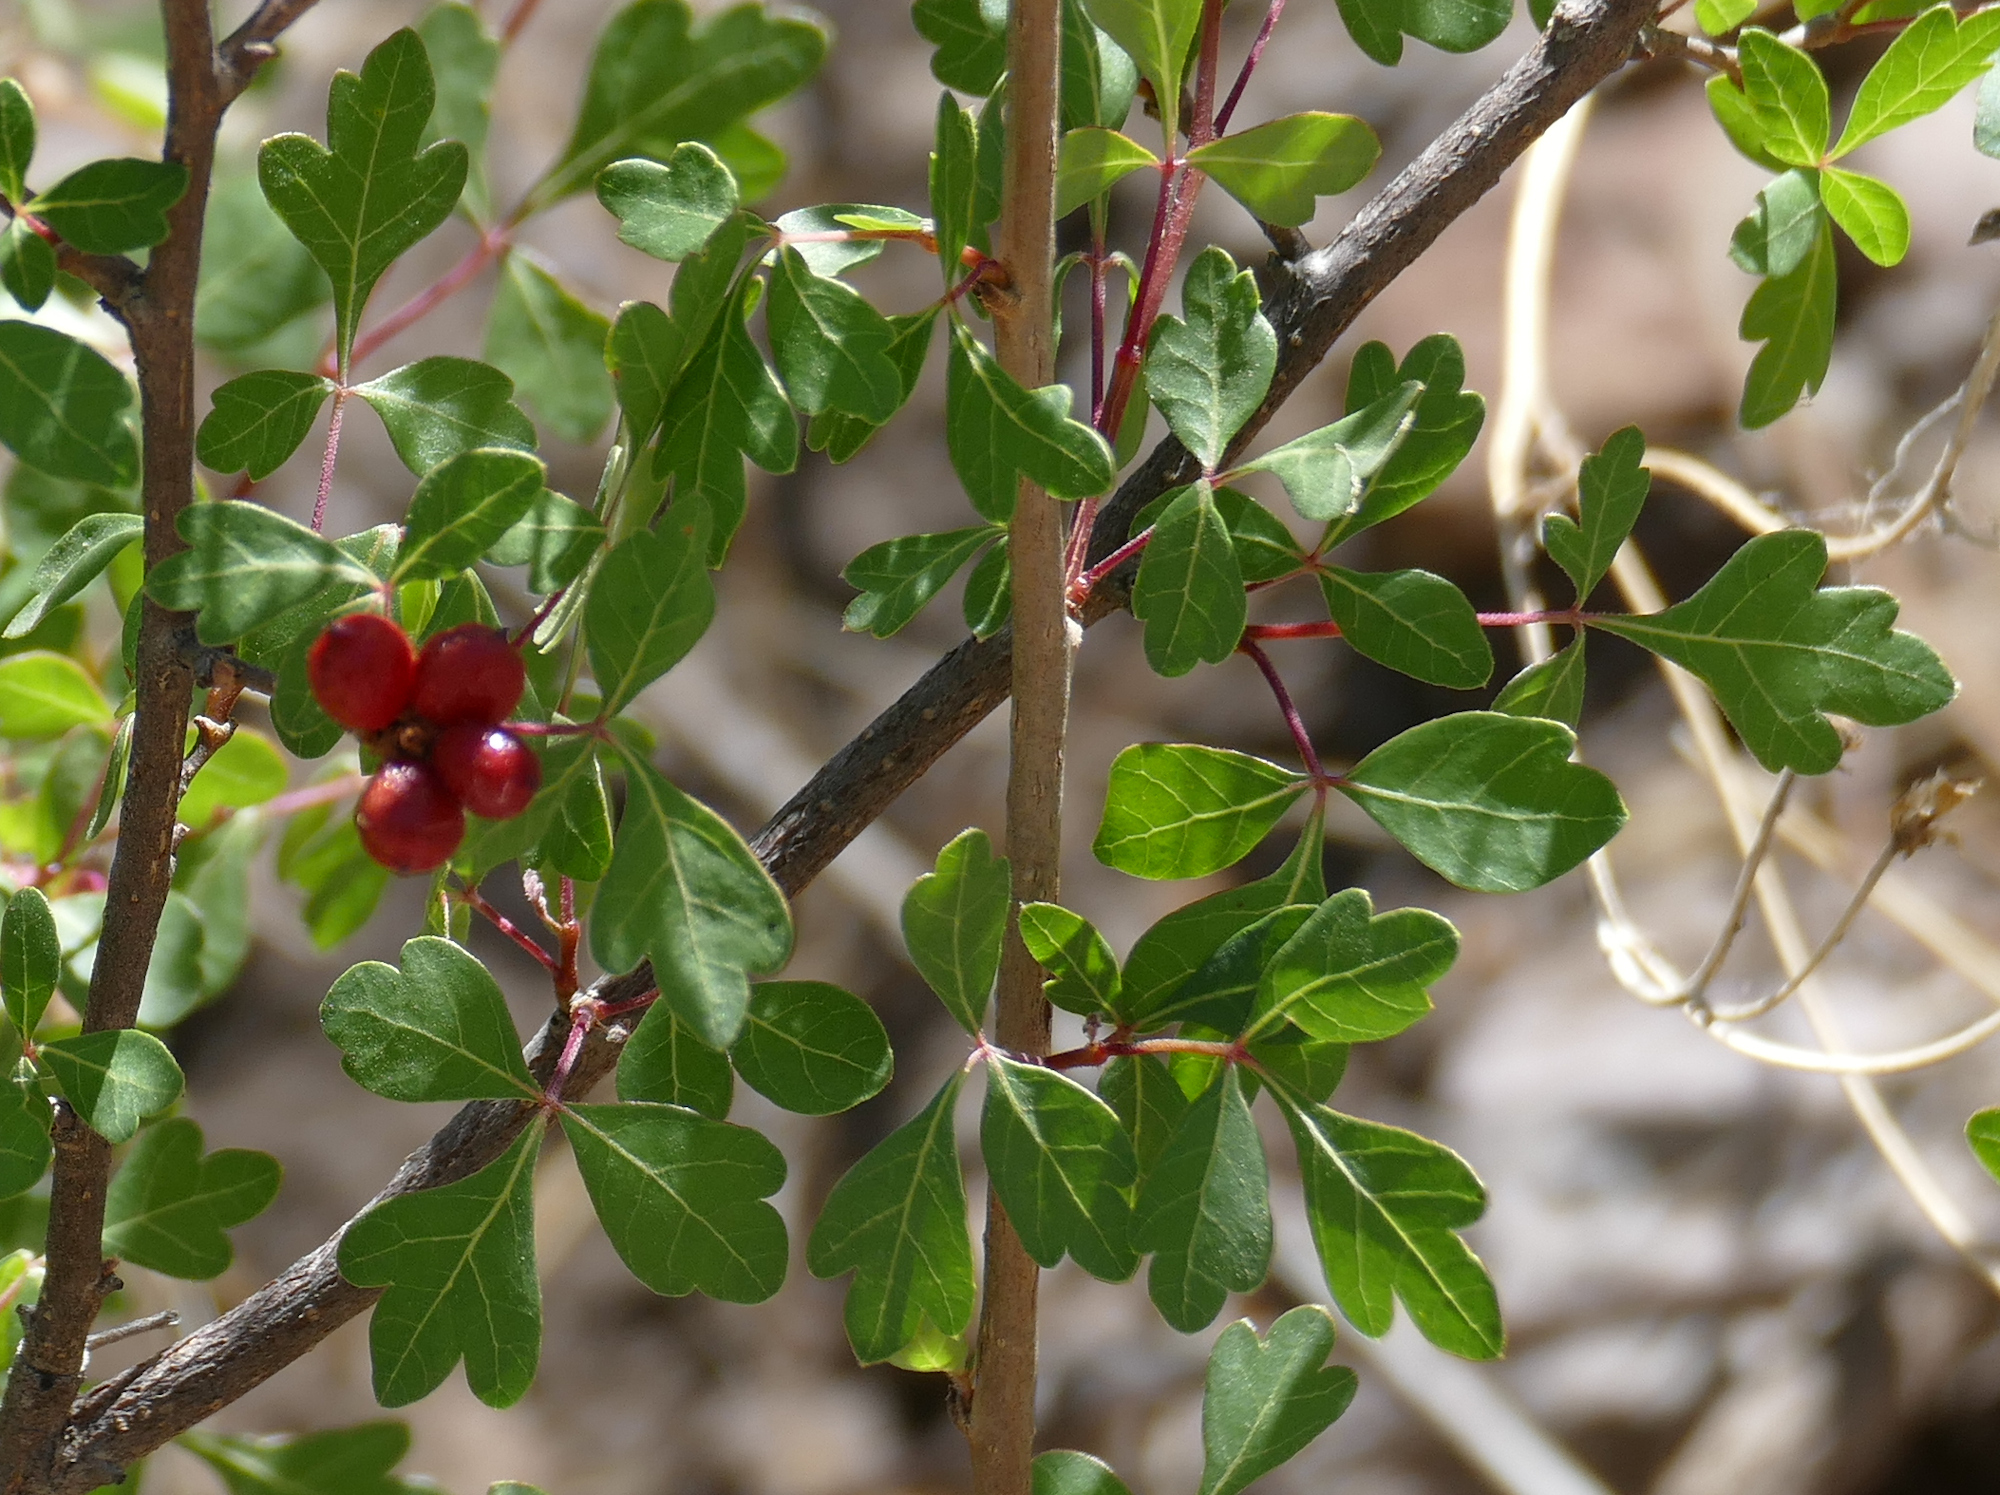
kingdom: Plantae
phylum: Tracheophyta
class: Magnoliopsida
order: Sapindales
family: Anacardiaceae
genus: Rhus
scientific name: Rhus trilobata
